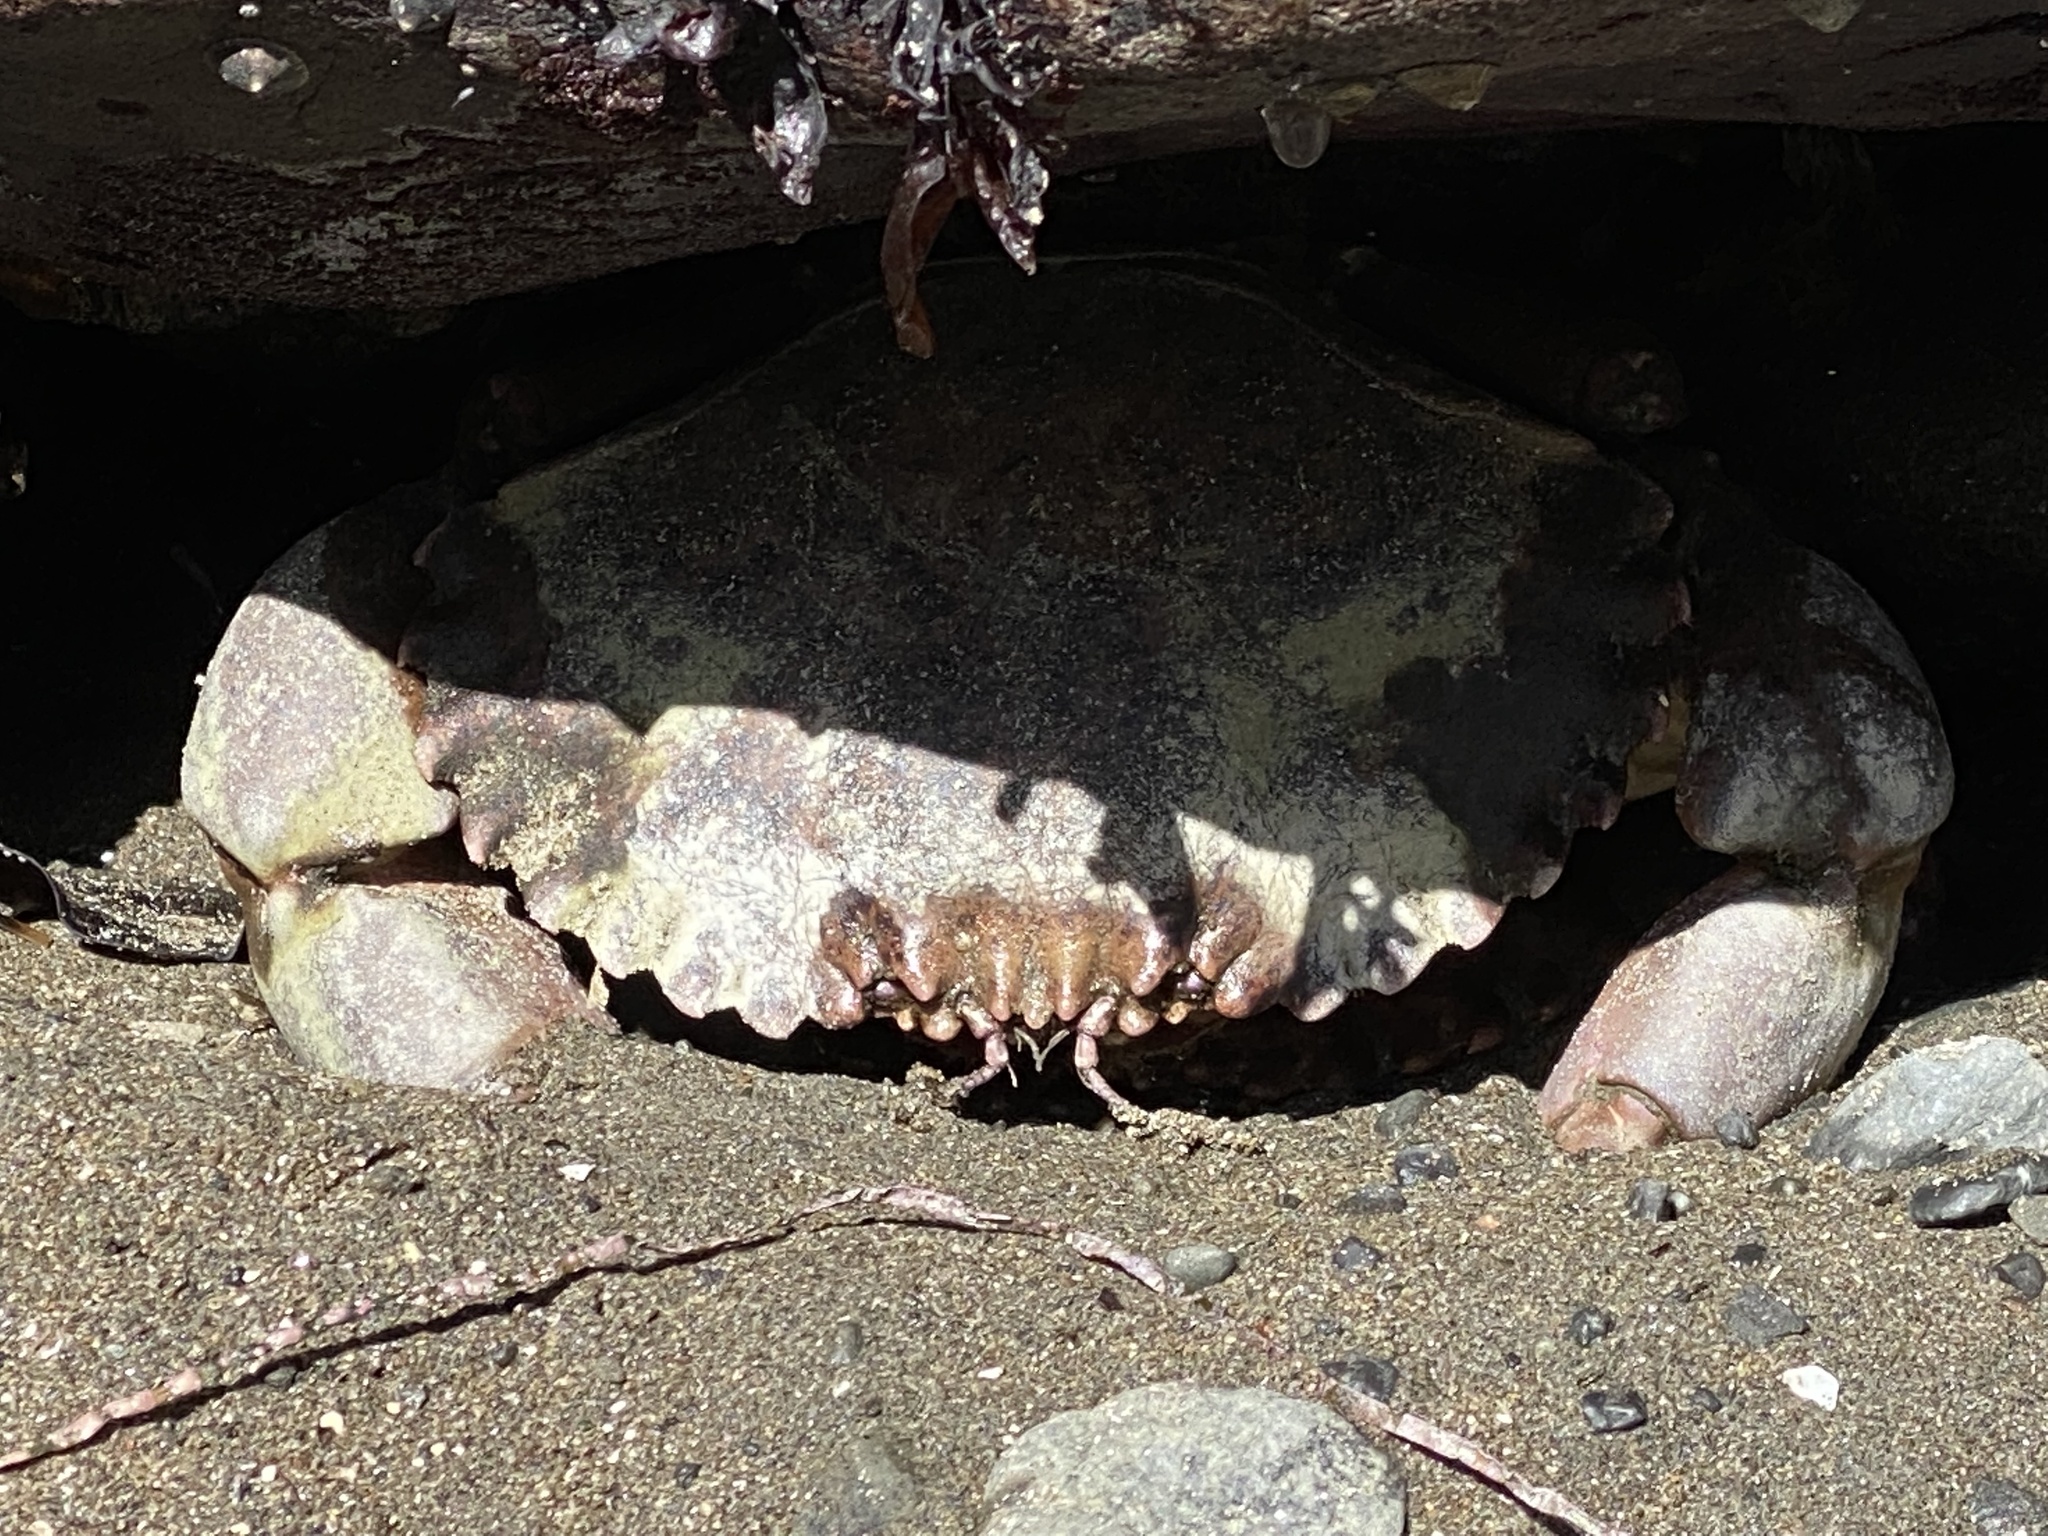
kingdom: Animalia
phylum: Arthropoda
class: Malacostraca
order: Decapoda
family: Cancridae
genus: Romaleon
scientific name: Romaleon antennarium
